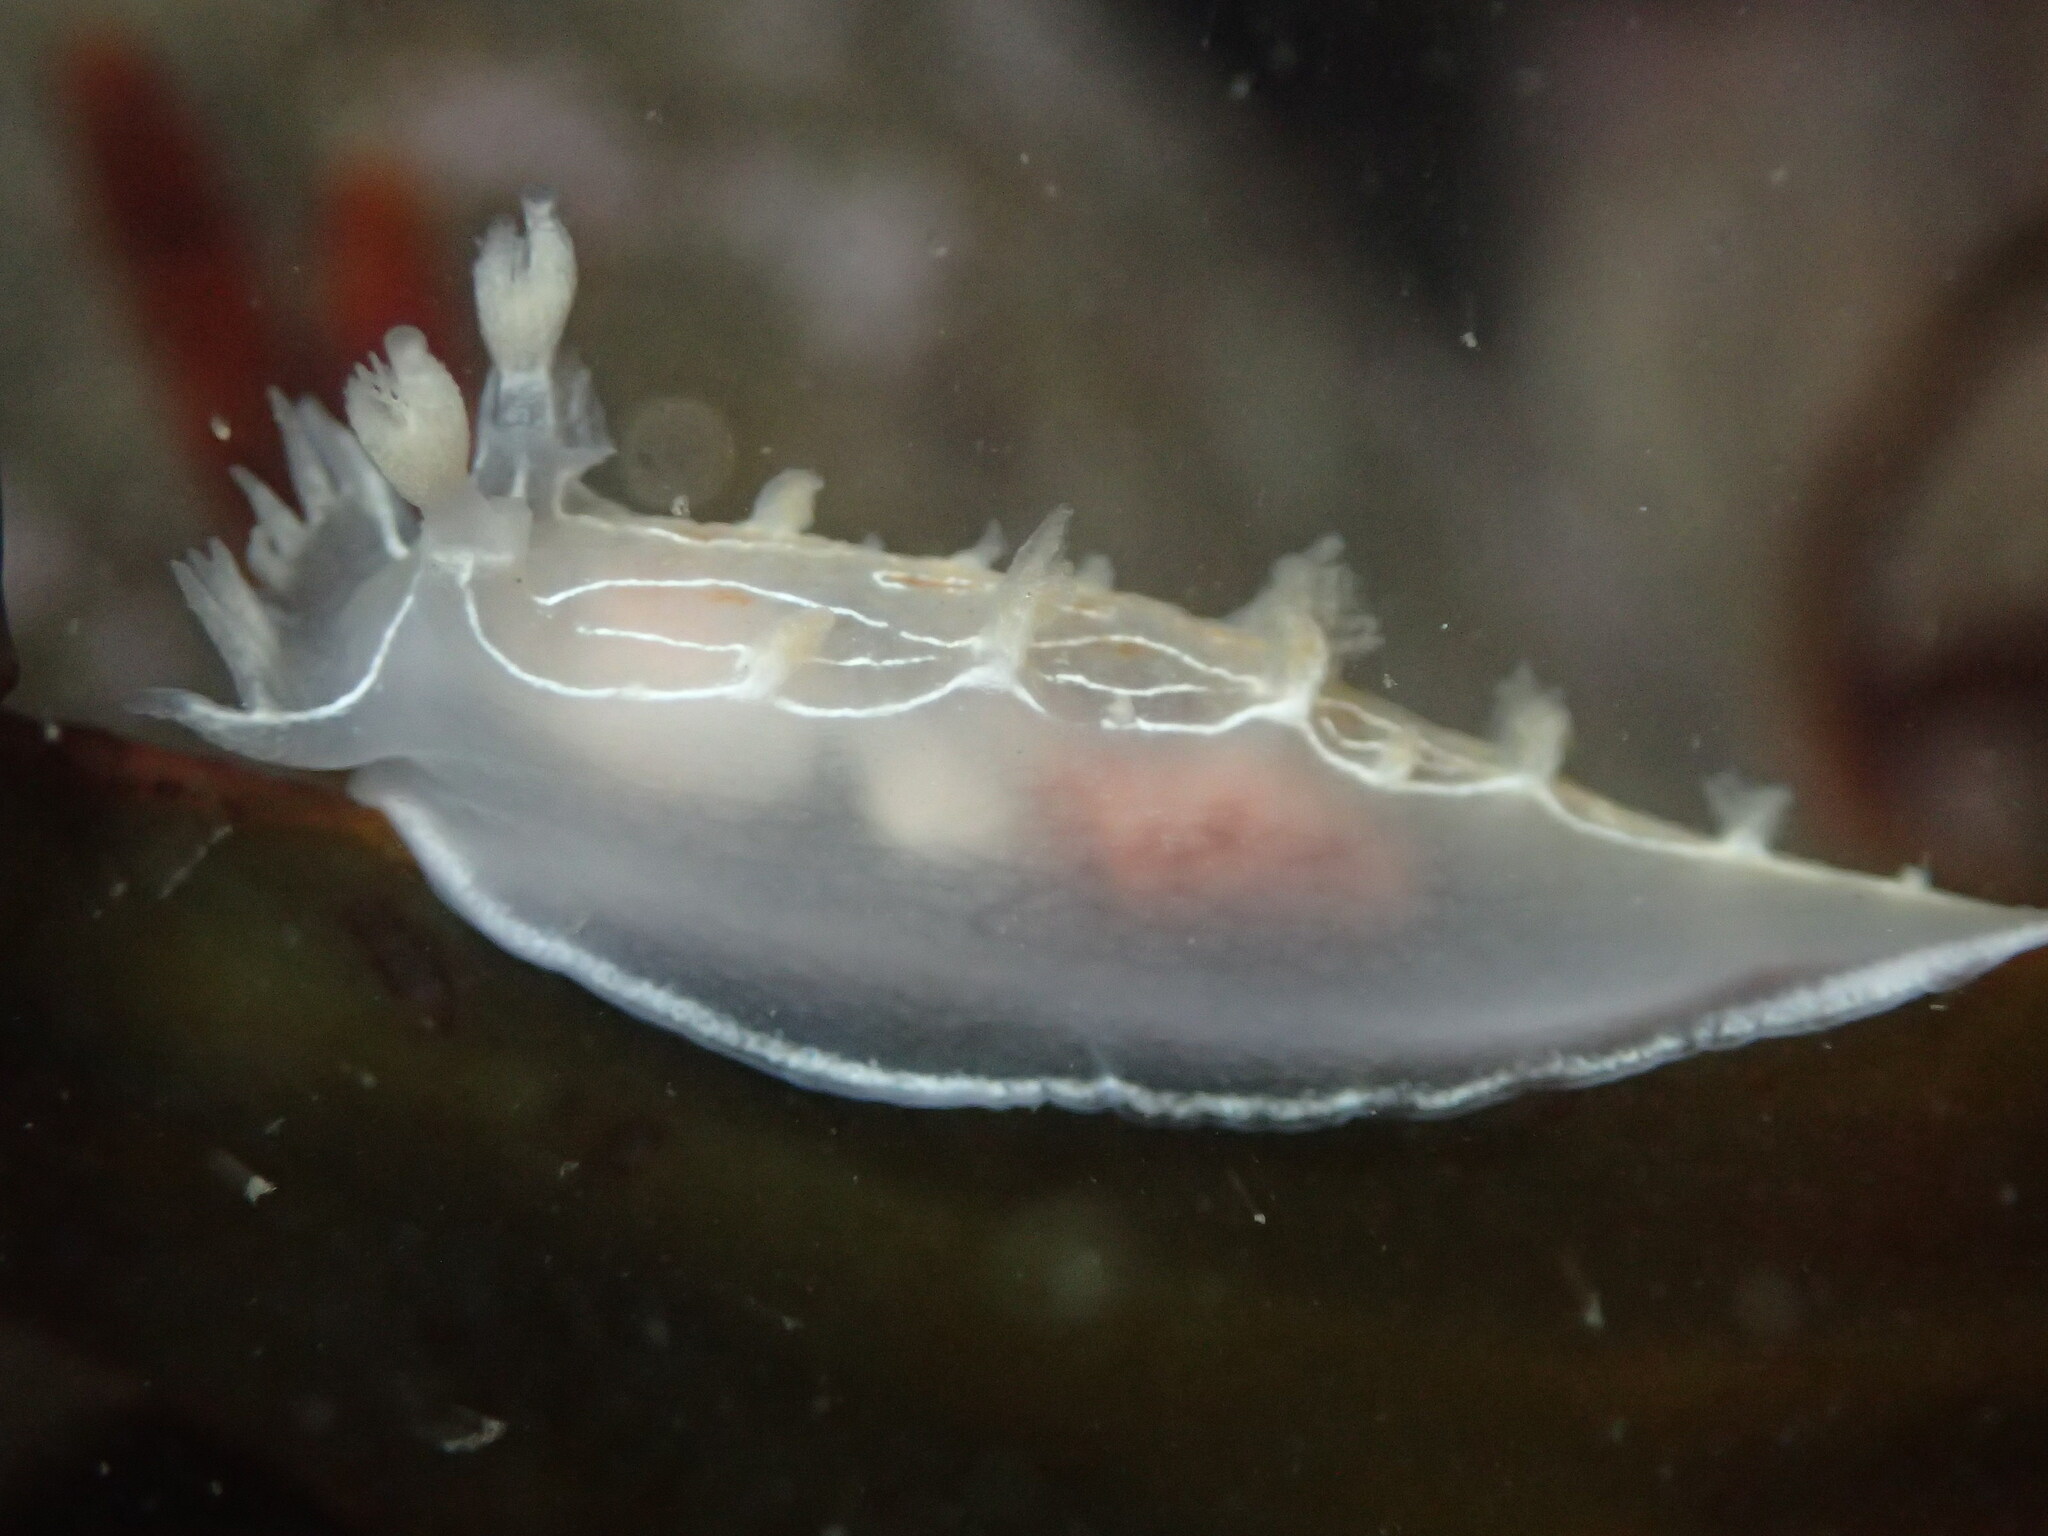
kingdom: Animalia
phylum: Mollusca
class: Gastropoda
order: Nudibranchia
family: Tritoniidae
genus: Tritonia
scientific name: Tritonia festiva
